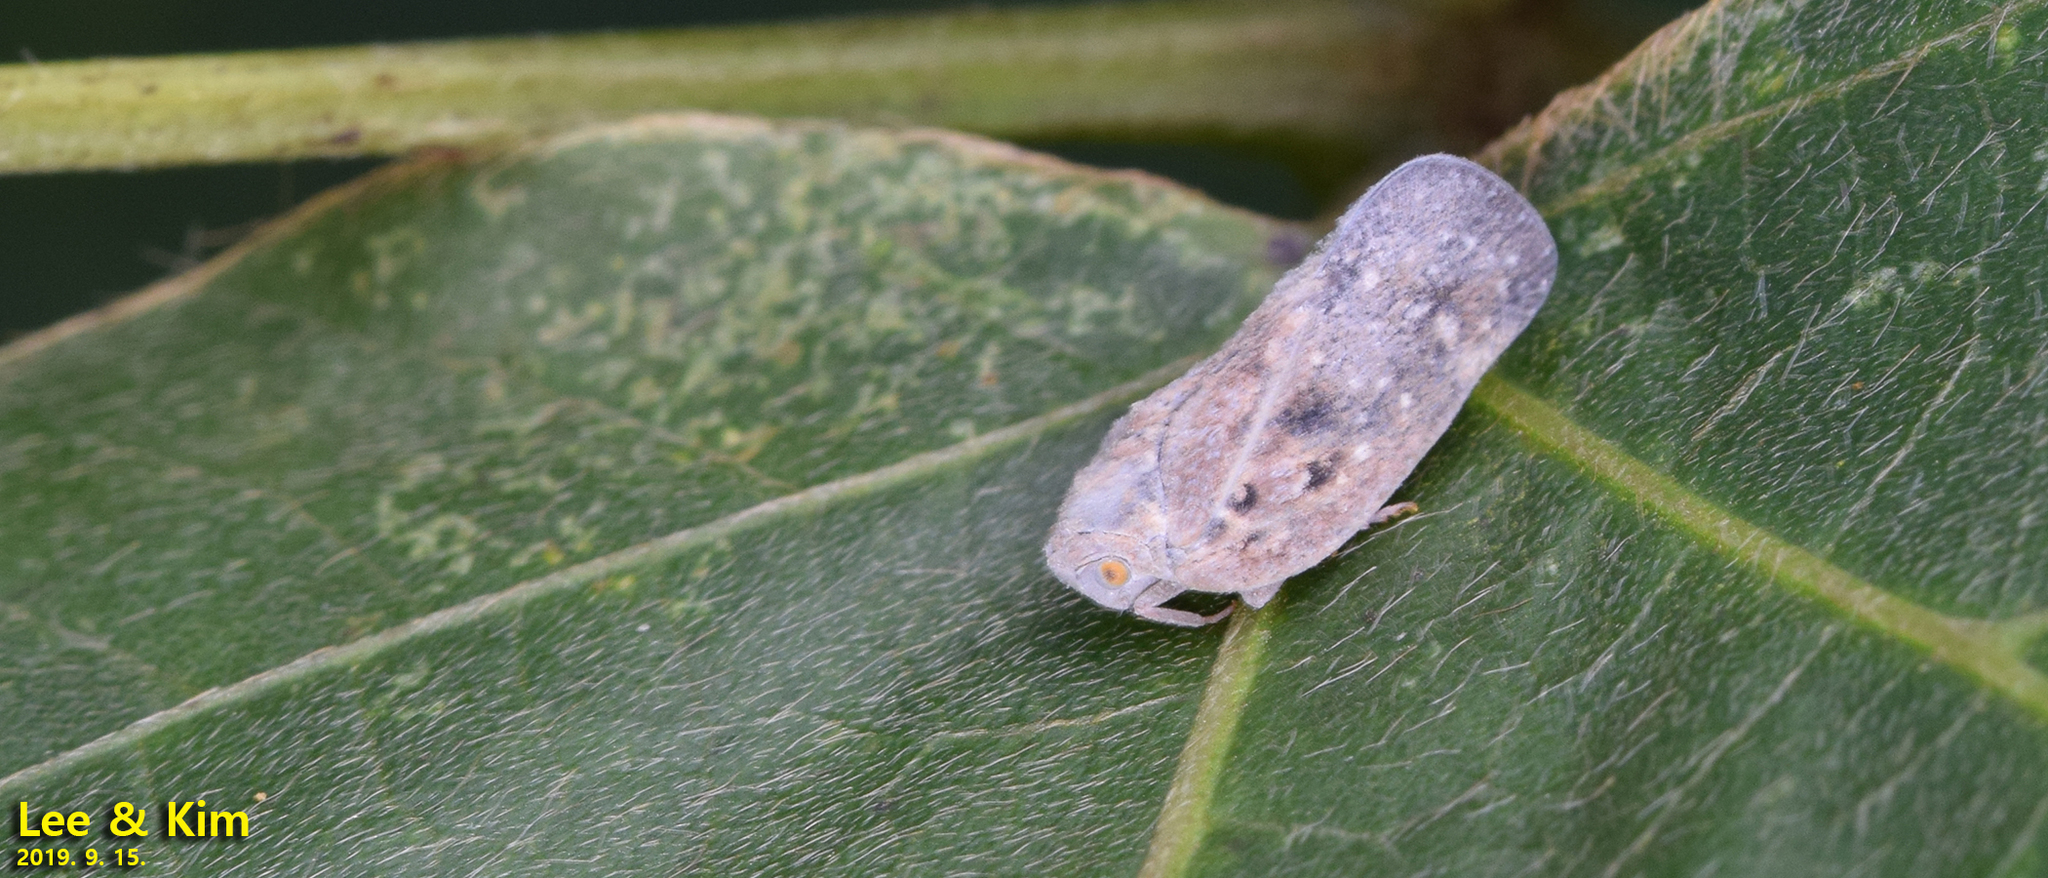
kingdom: Animalia
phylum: Arthropoda
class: Insecta
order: Hemiptera
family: Flatidae
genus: Metcalfa
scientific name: Metcalfa pruinosa
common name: Citrus flatid planthopper
